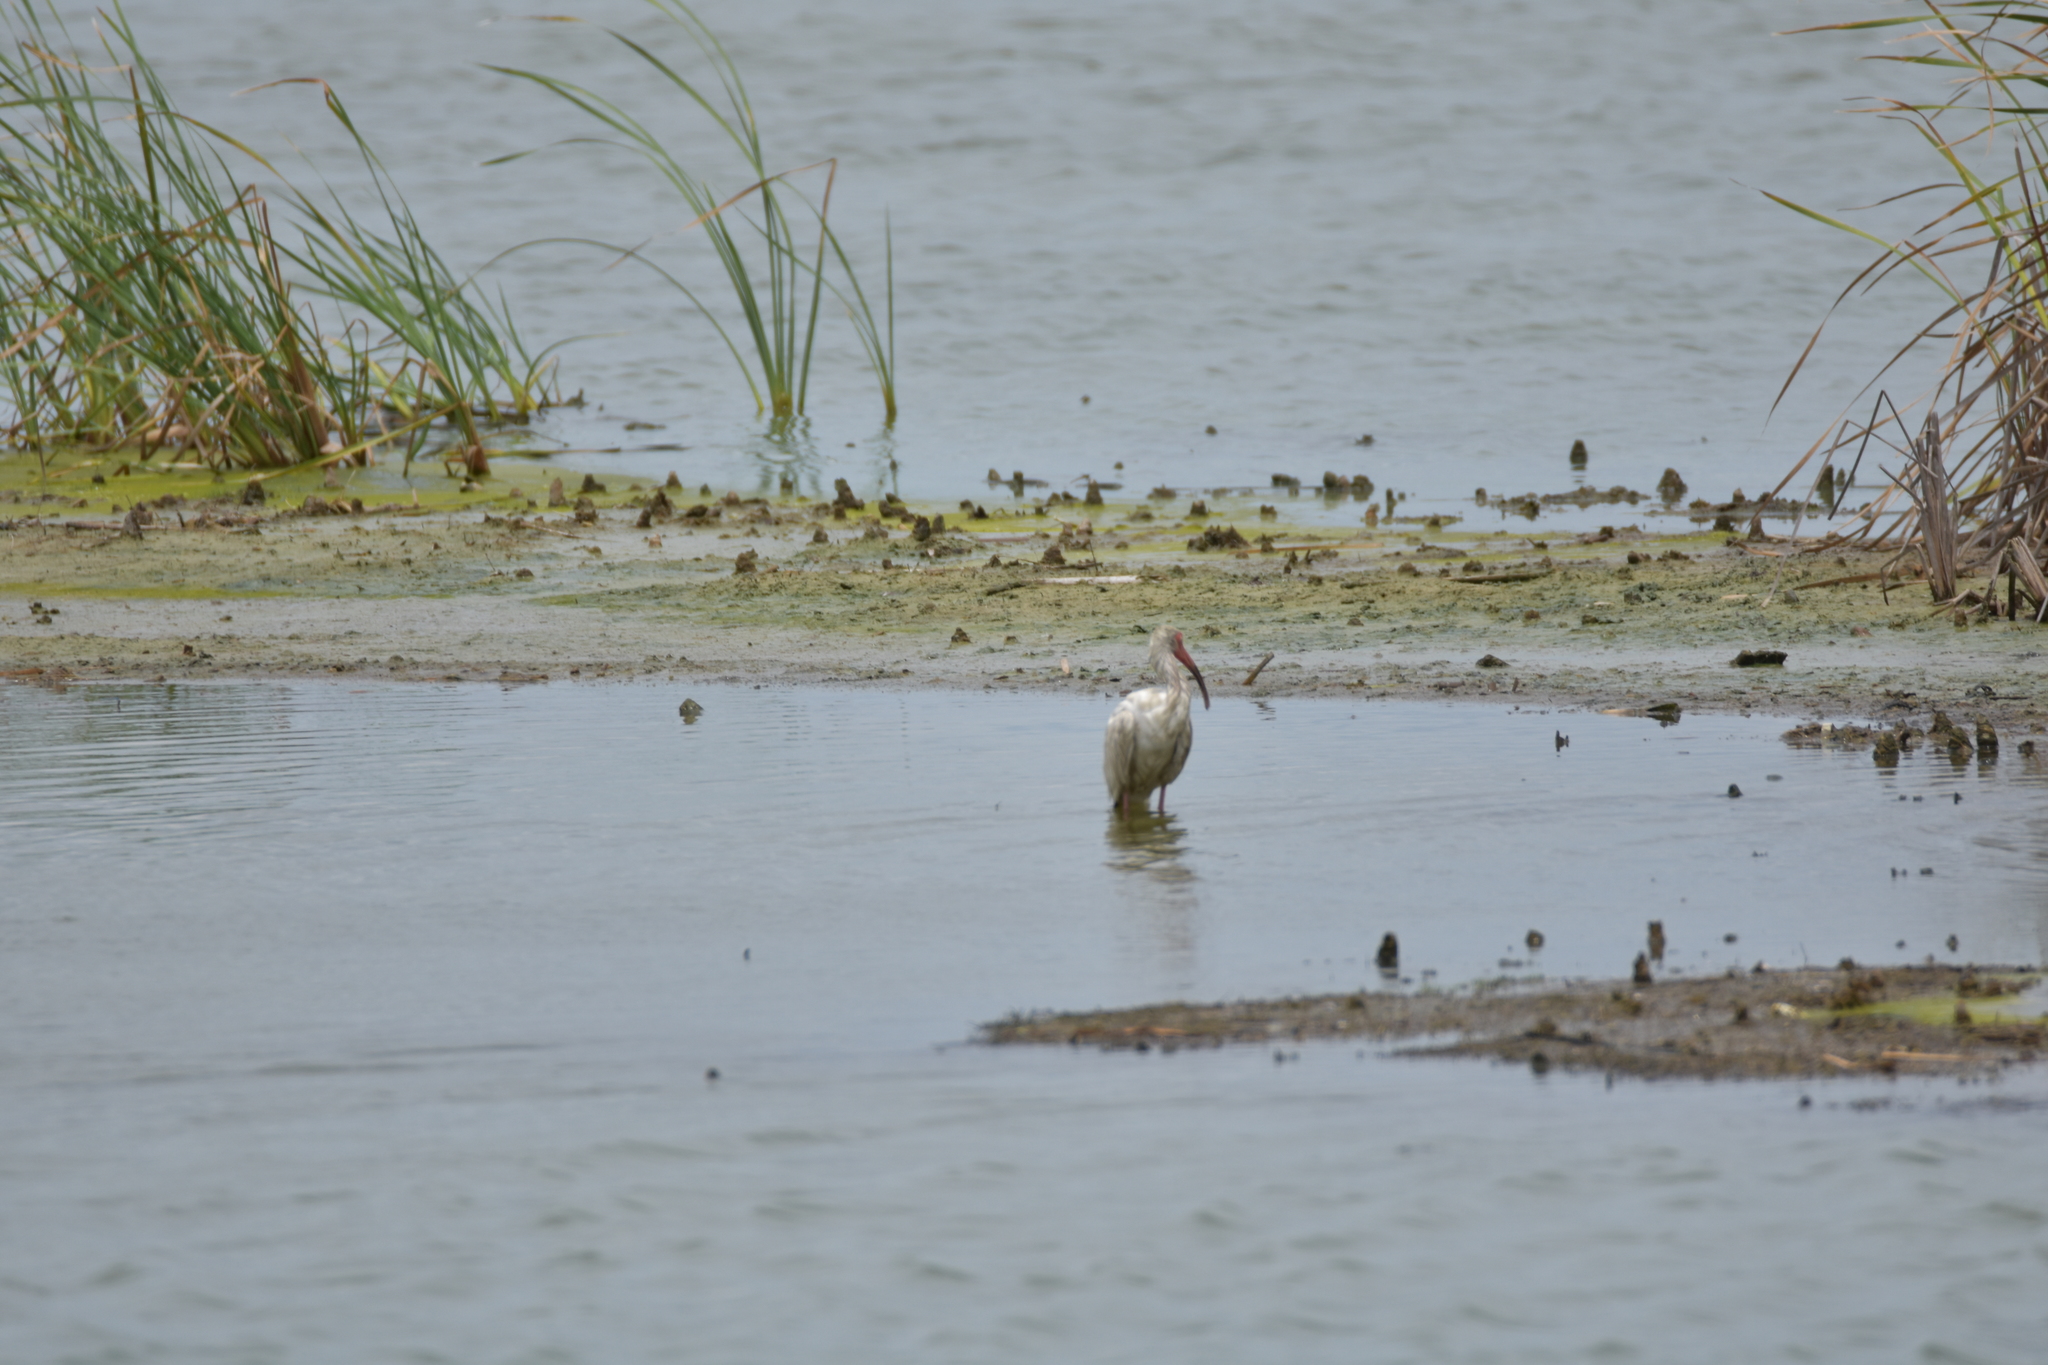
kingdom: Animalia
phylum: Chordata
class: Aves
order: Pelecaniformes
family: Threskiornithidae
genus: Eudocimus
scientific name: Eudocimus albus
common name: White ibis
